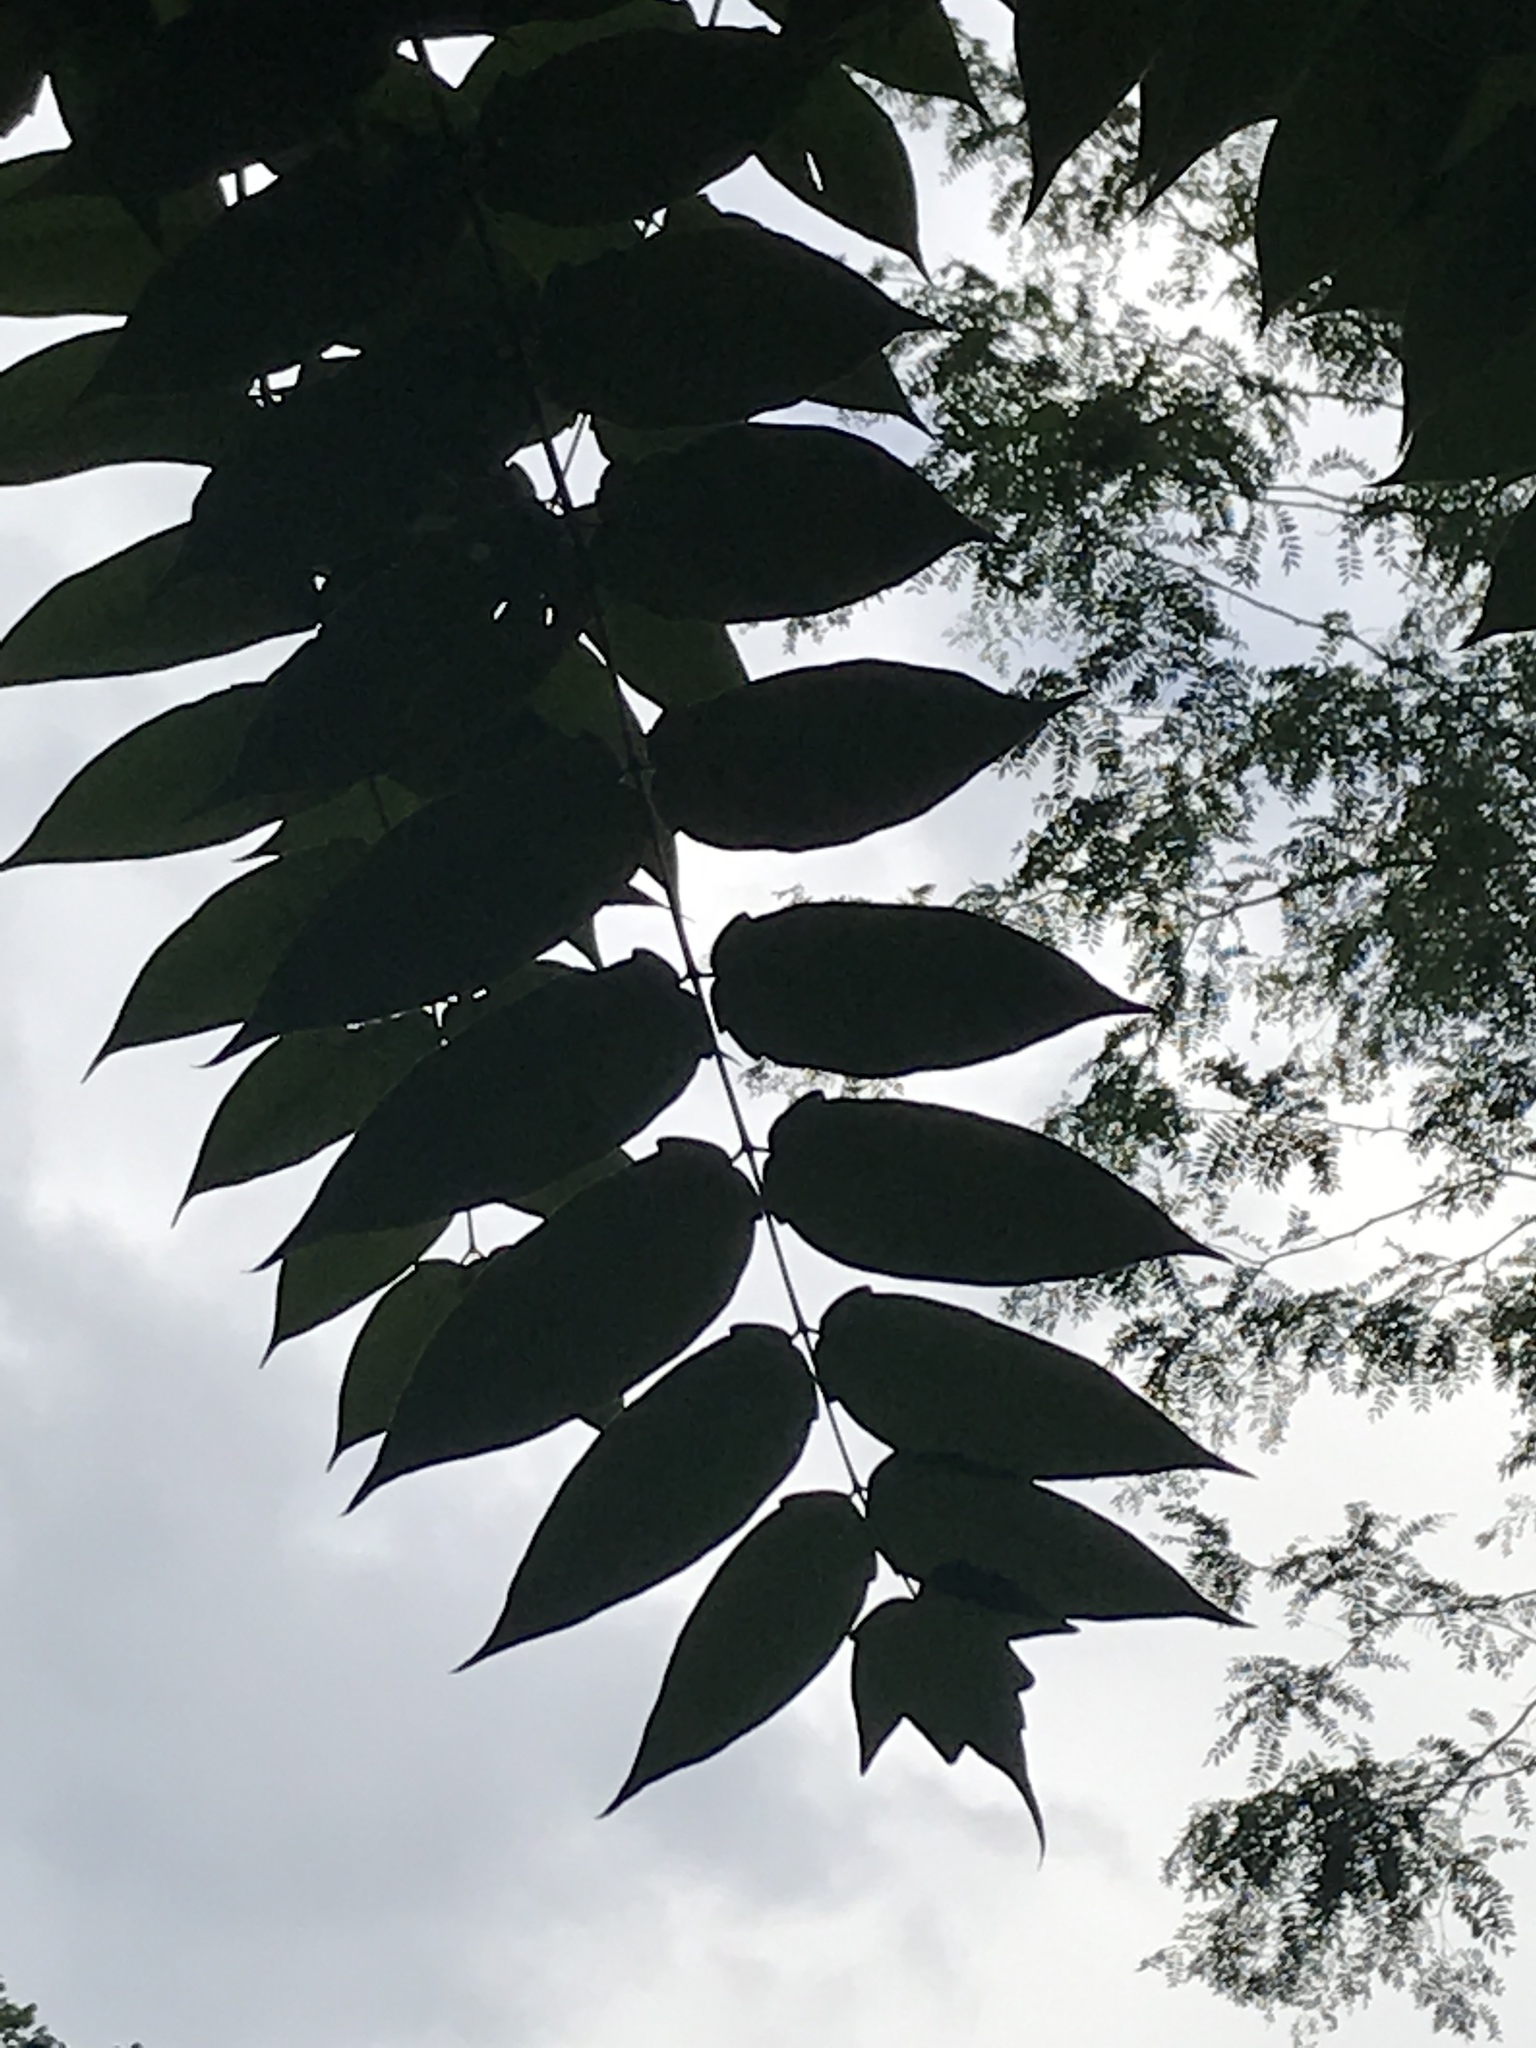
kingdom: Plantae
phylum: Tracheophyta
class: Magnoliopsida
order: Sapindales
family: Simaroubaceae
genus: Ailanthus
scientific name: Ailanthus altissima
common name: Tree-of-heaven
